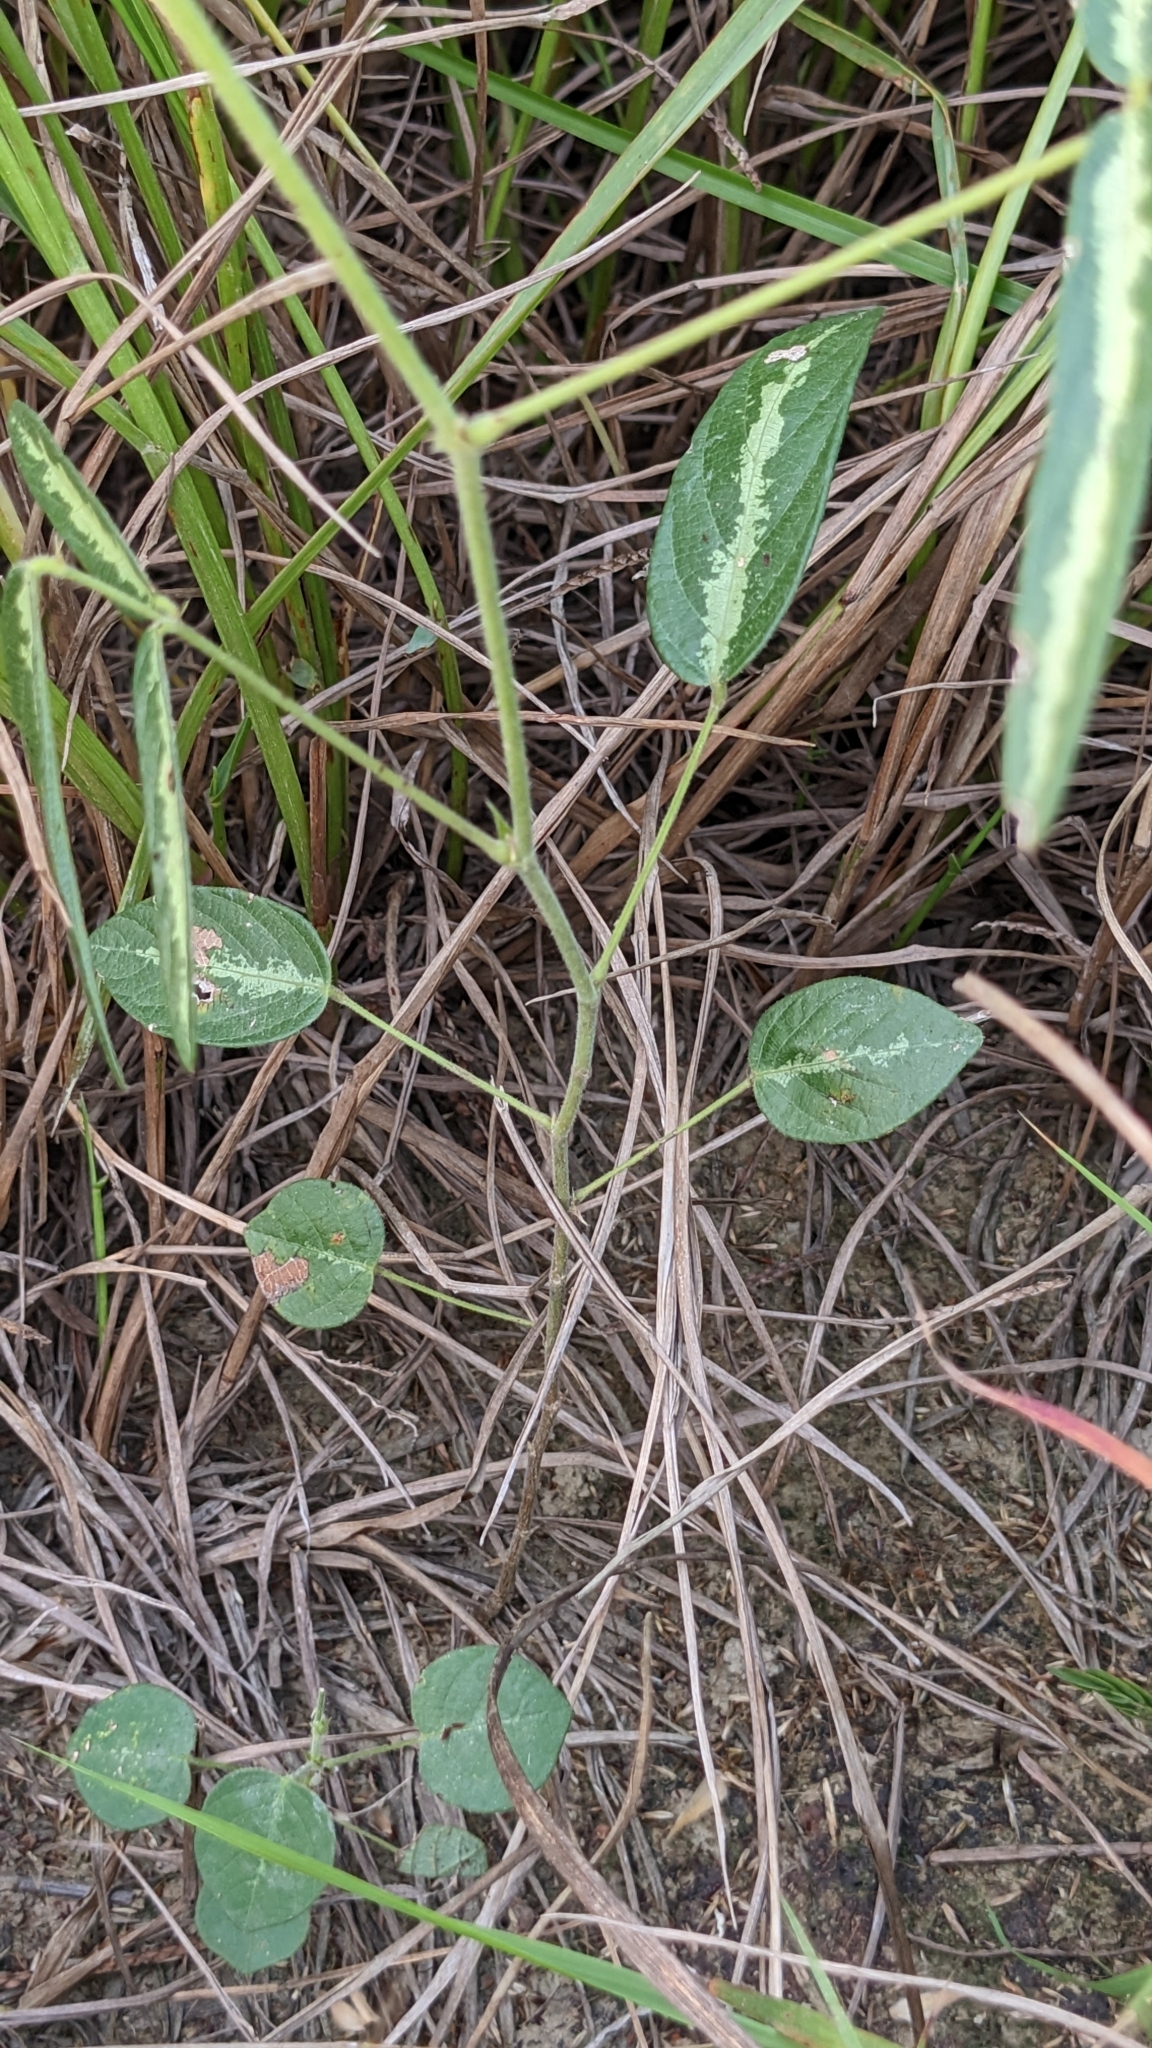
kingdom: Plantae
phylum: Tracheophyta
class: Magnoliopsida
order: Fabales
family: Fabaceae
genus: Uraria
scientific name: Uraria picta
